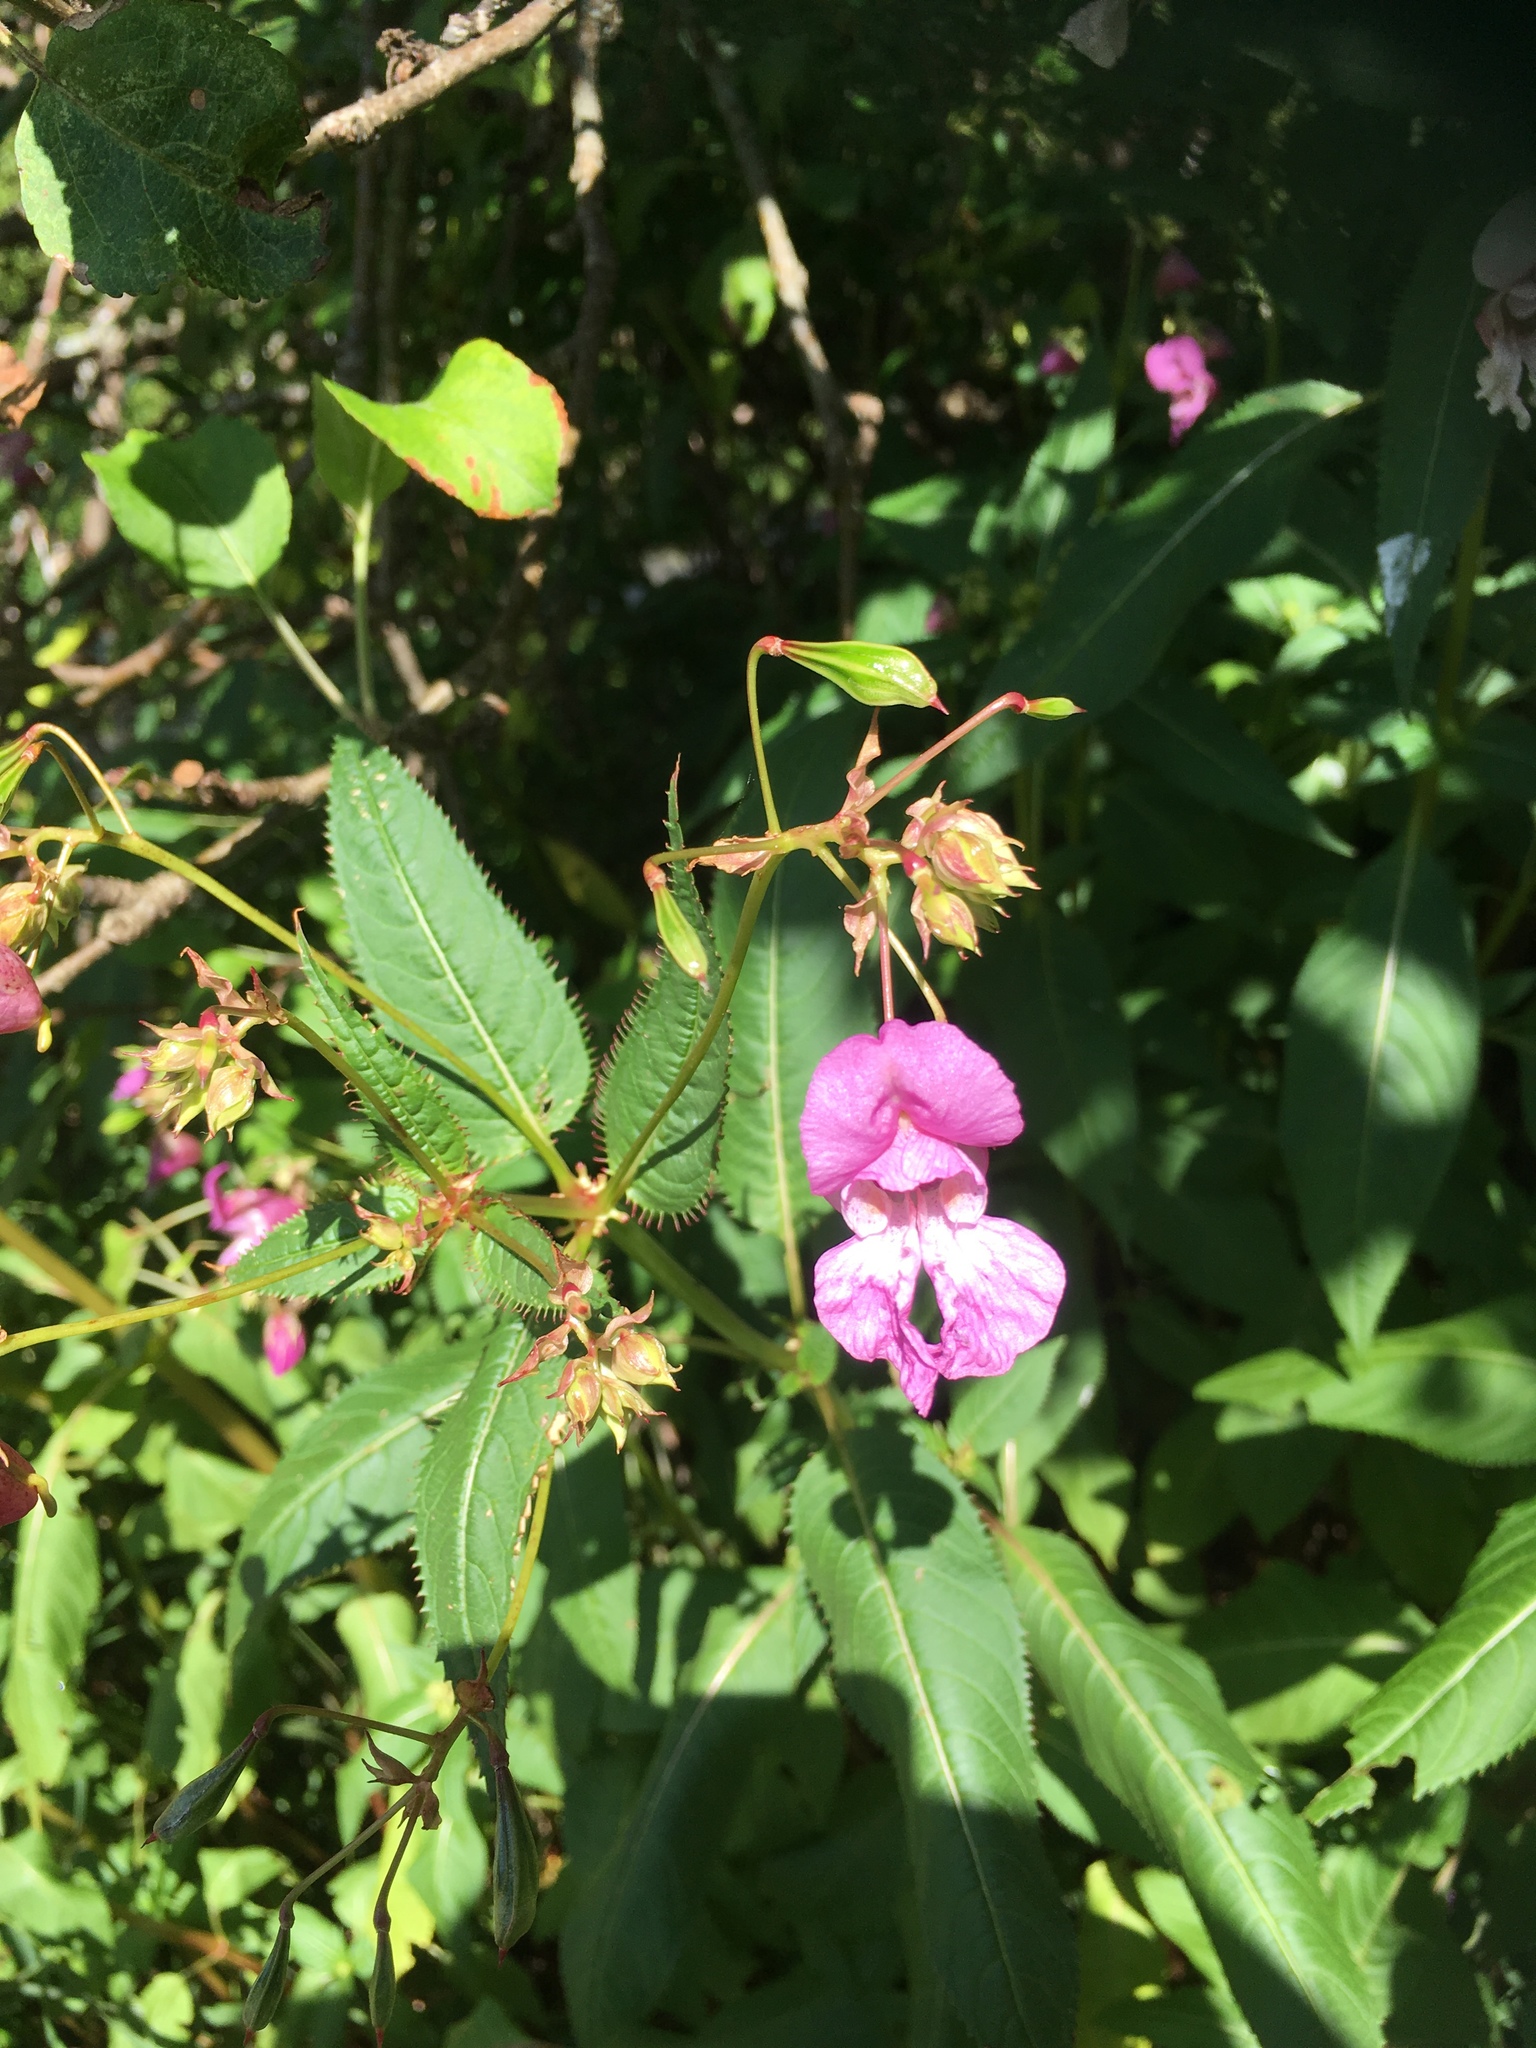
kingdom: Plantae
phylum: Tracheophyta
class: Magnoliopsida
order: Ericales
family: Balsaminaceae
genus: Impatiens
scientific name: Impatiens glandulifera
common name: Himalayan balsam
